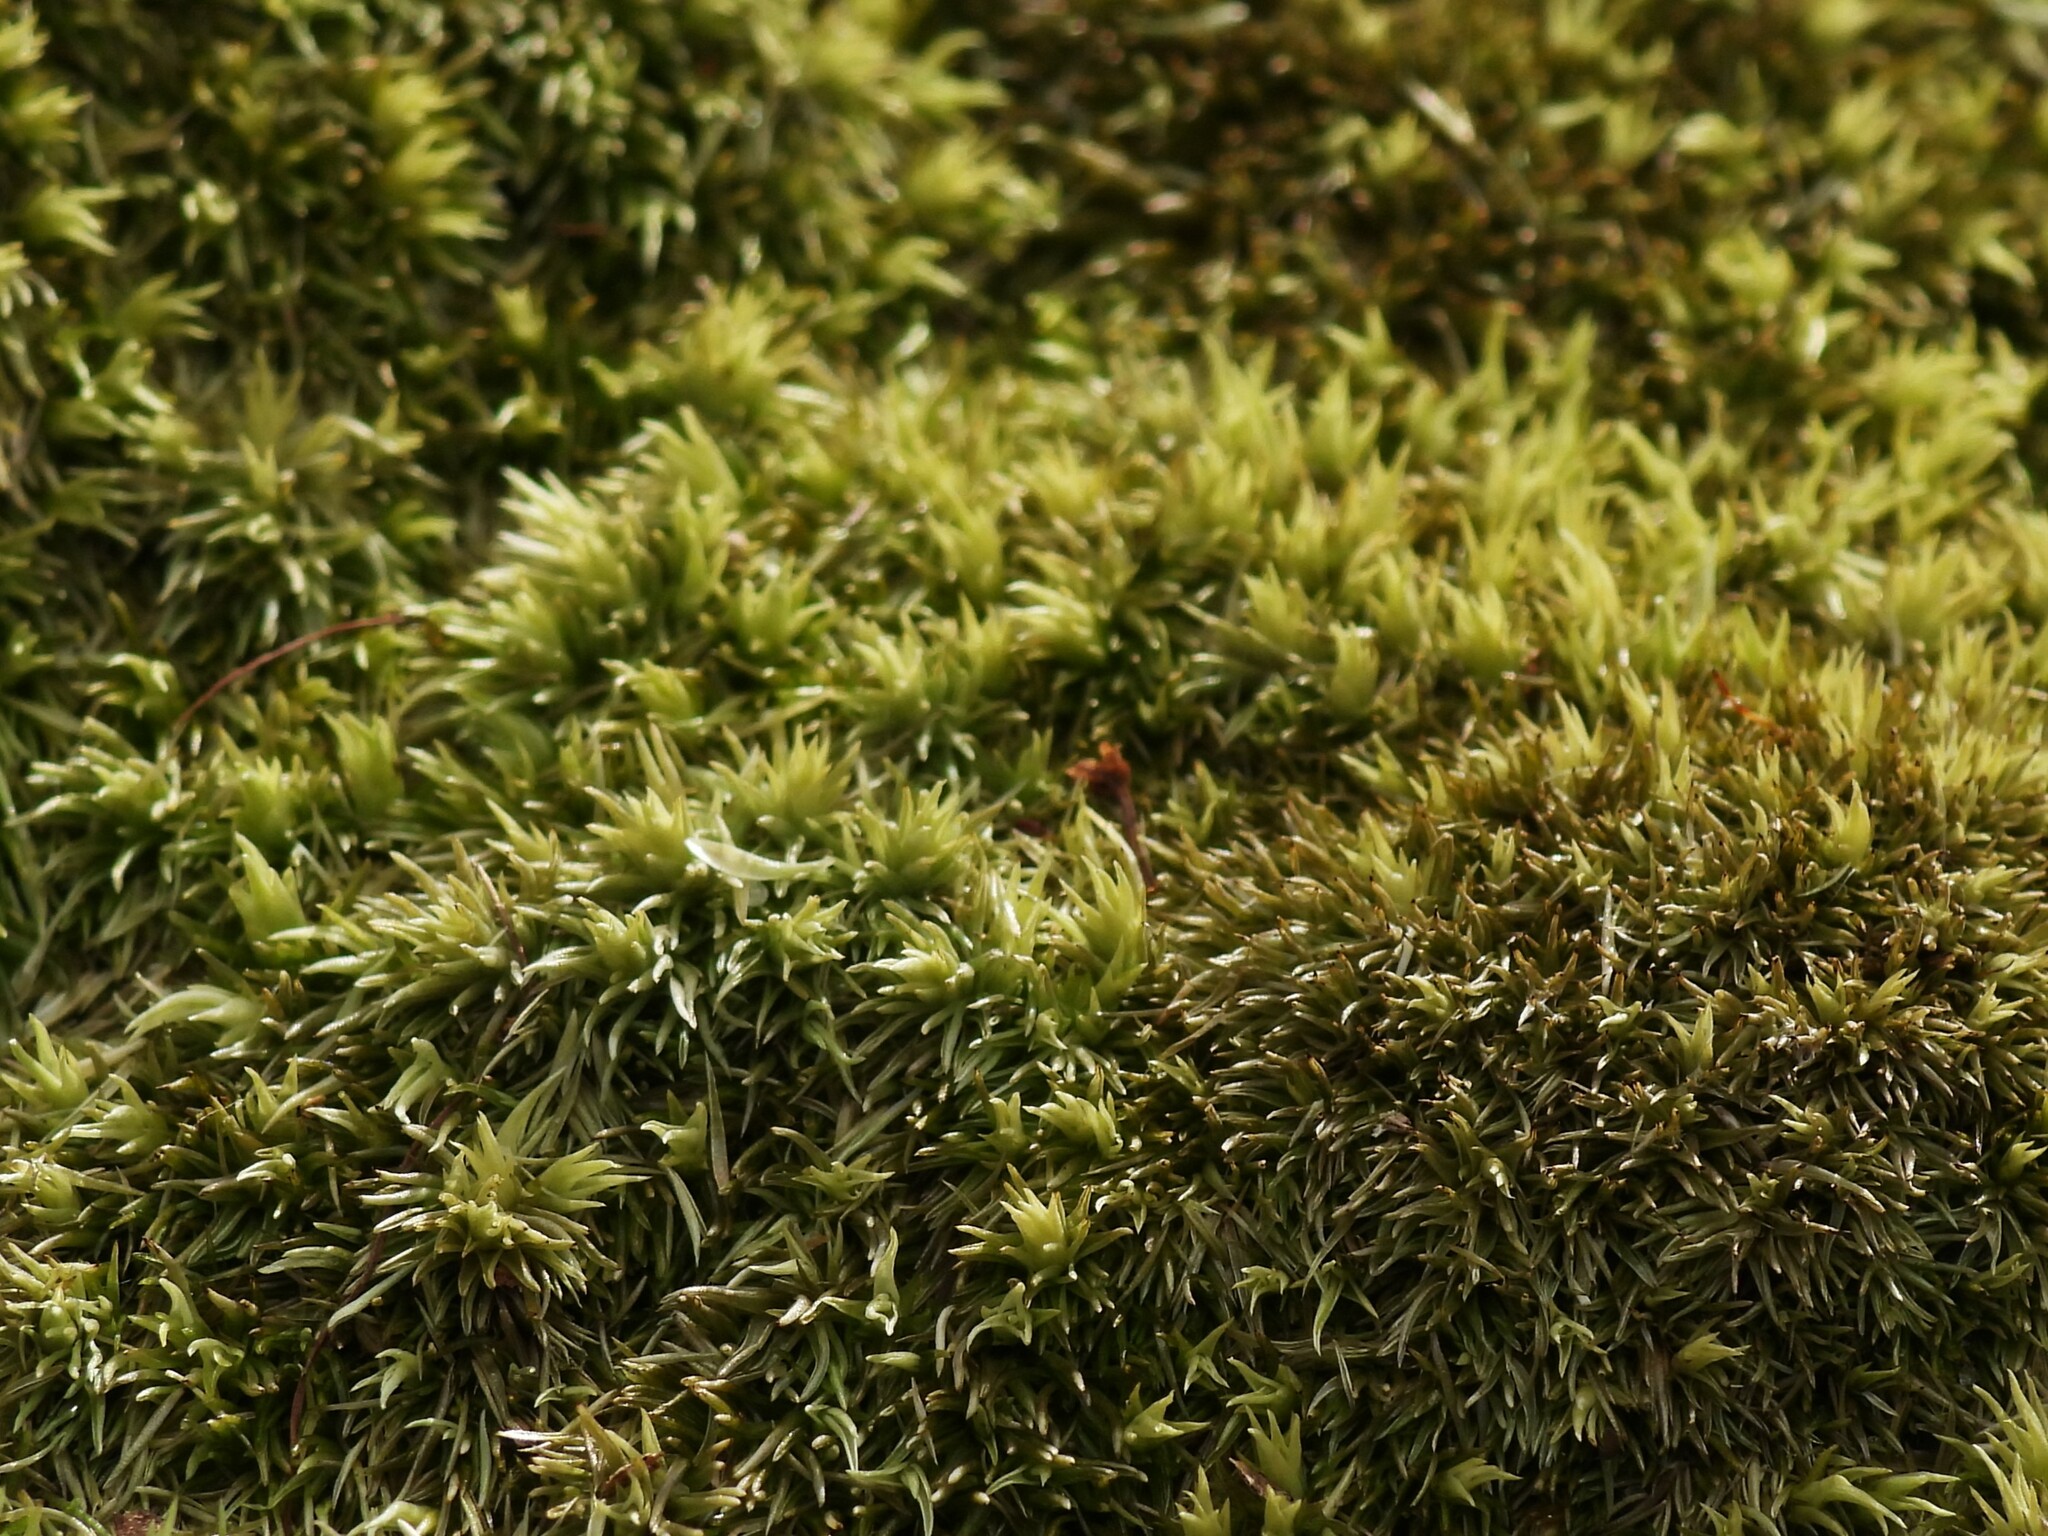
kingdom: Plantae
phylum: Bryophyta
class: Bryopsida
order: Dicranales
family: Leucobryaceae
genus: Leucobryum
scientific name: Leucobryum glaucum
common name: Large white-moss
